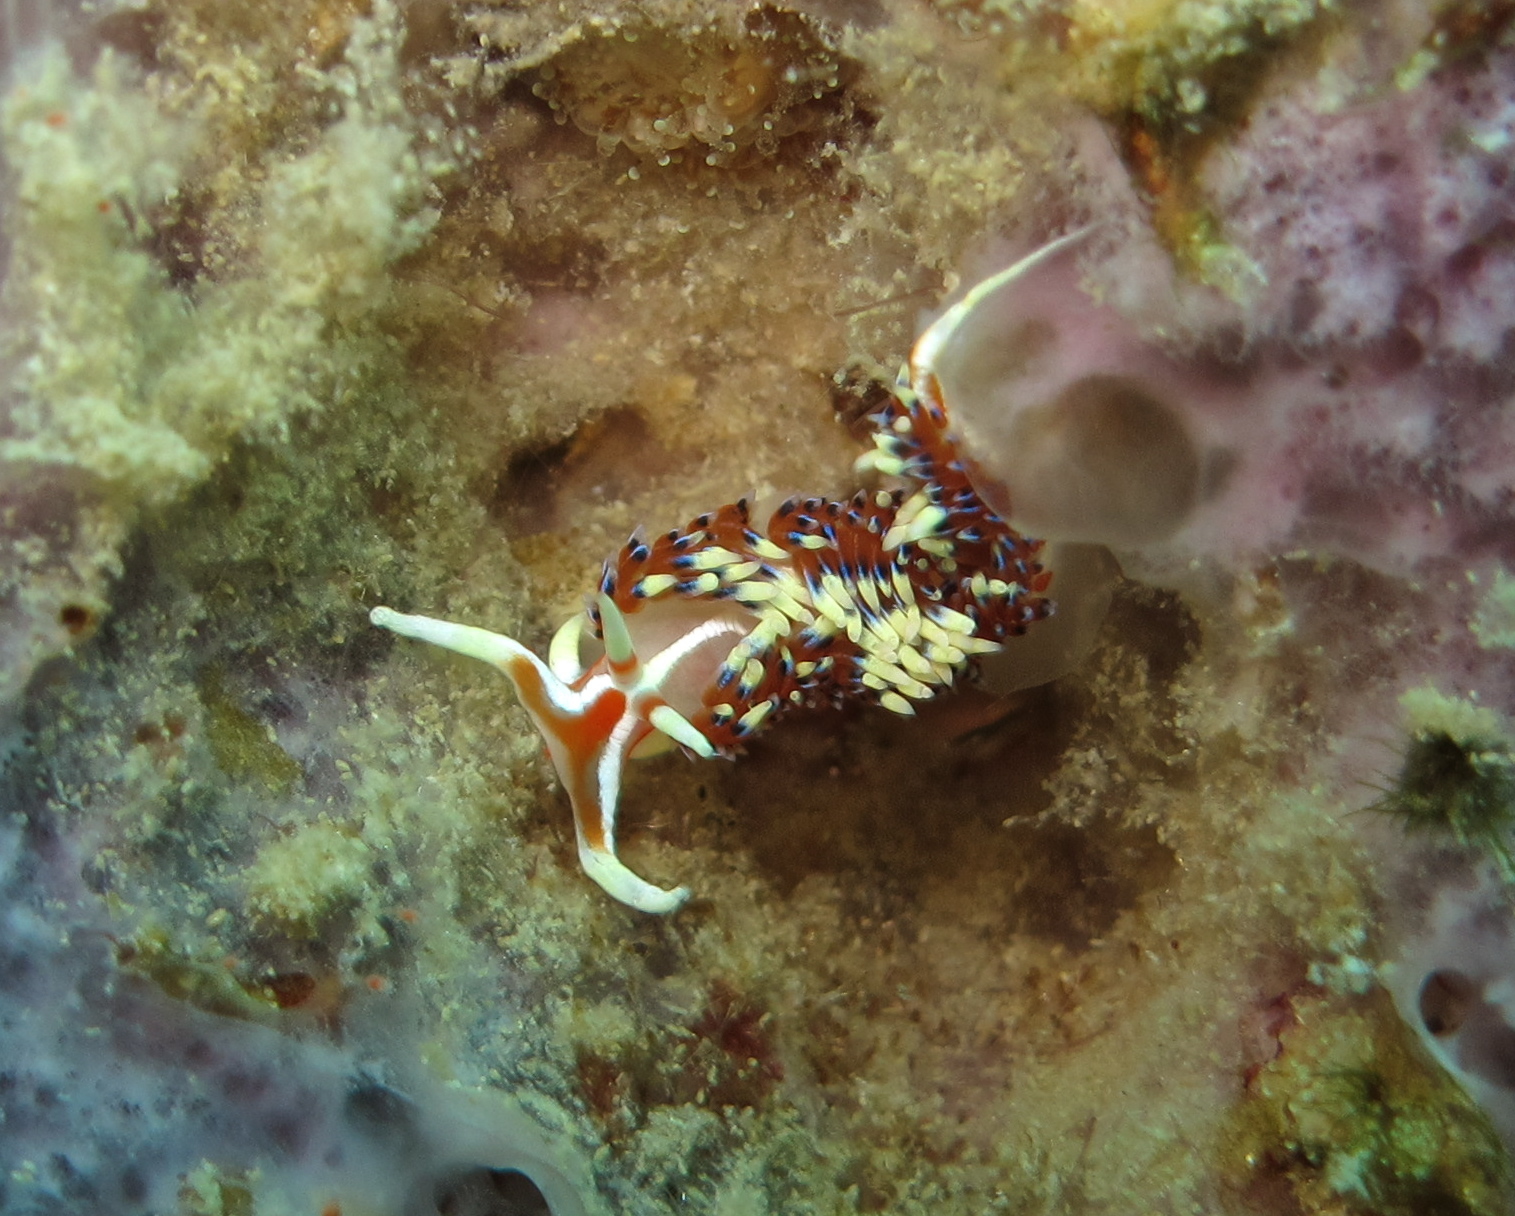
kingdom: Animalia
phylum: Mollusca
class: Gastropoda
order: Nudibranchia
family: Facelinidae
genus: Caloria
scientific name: Caloria indica
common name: Sea slug
